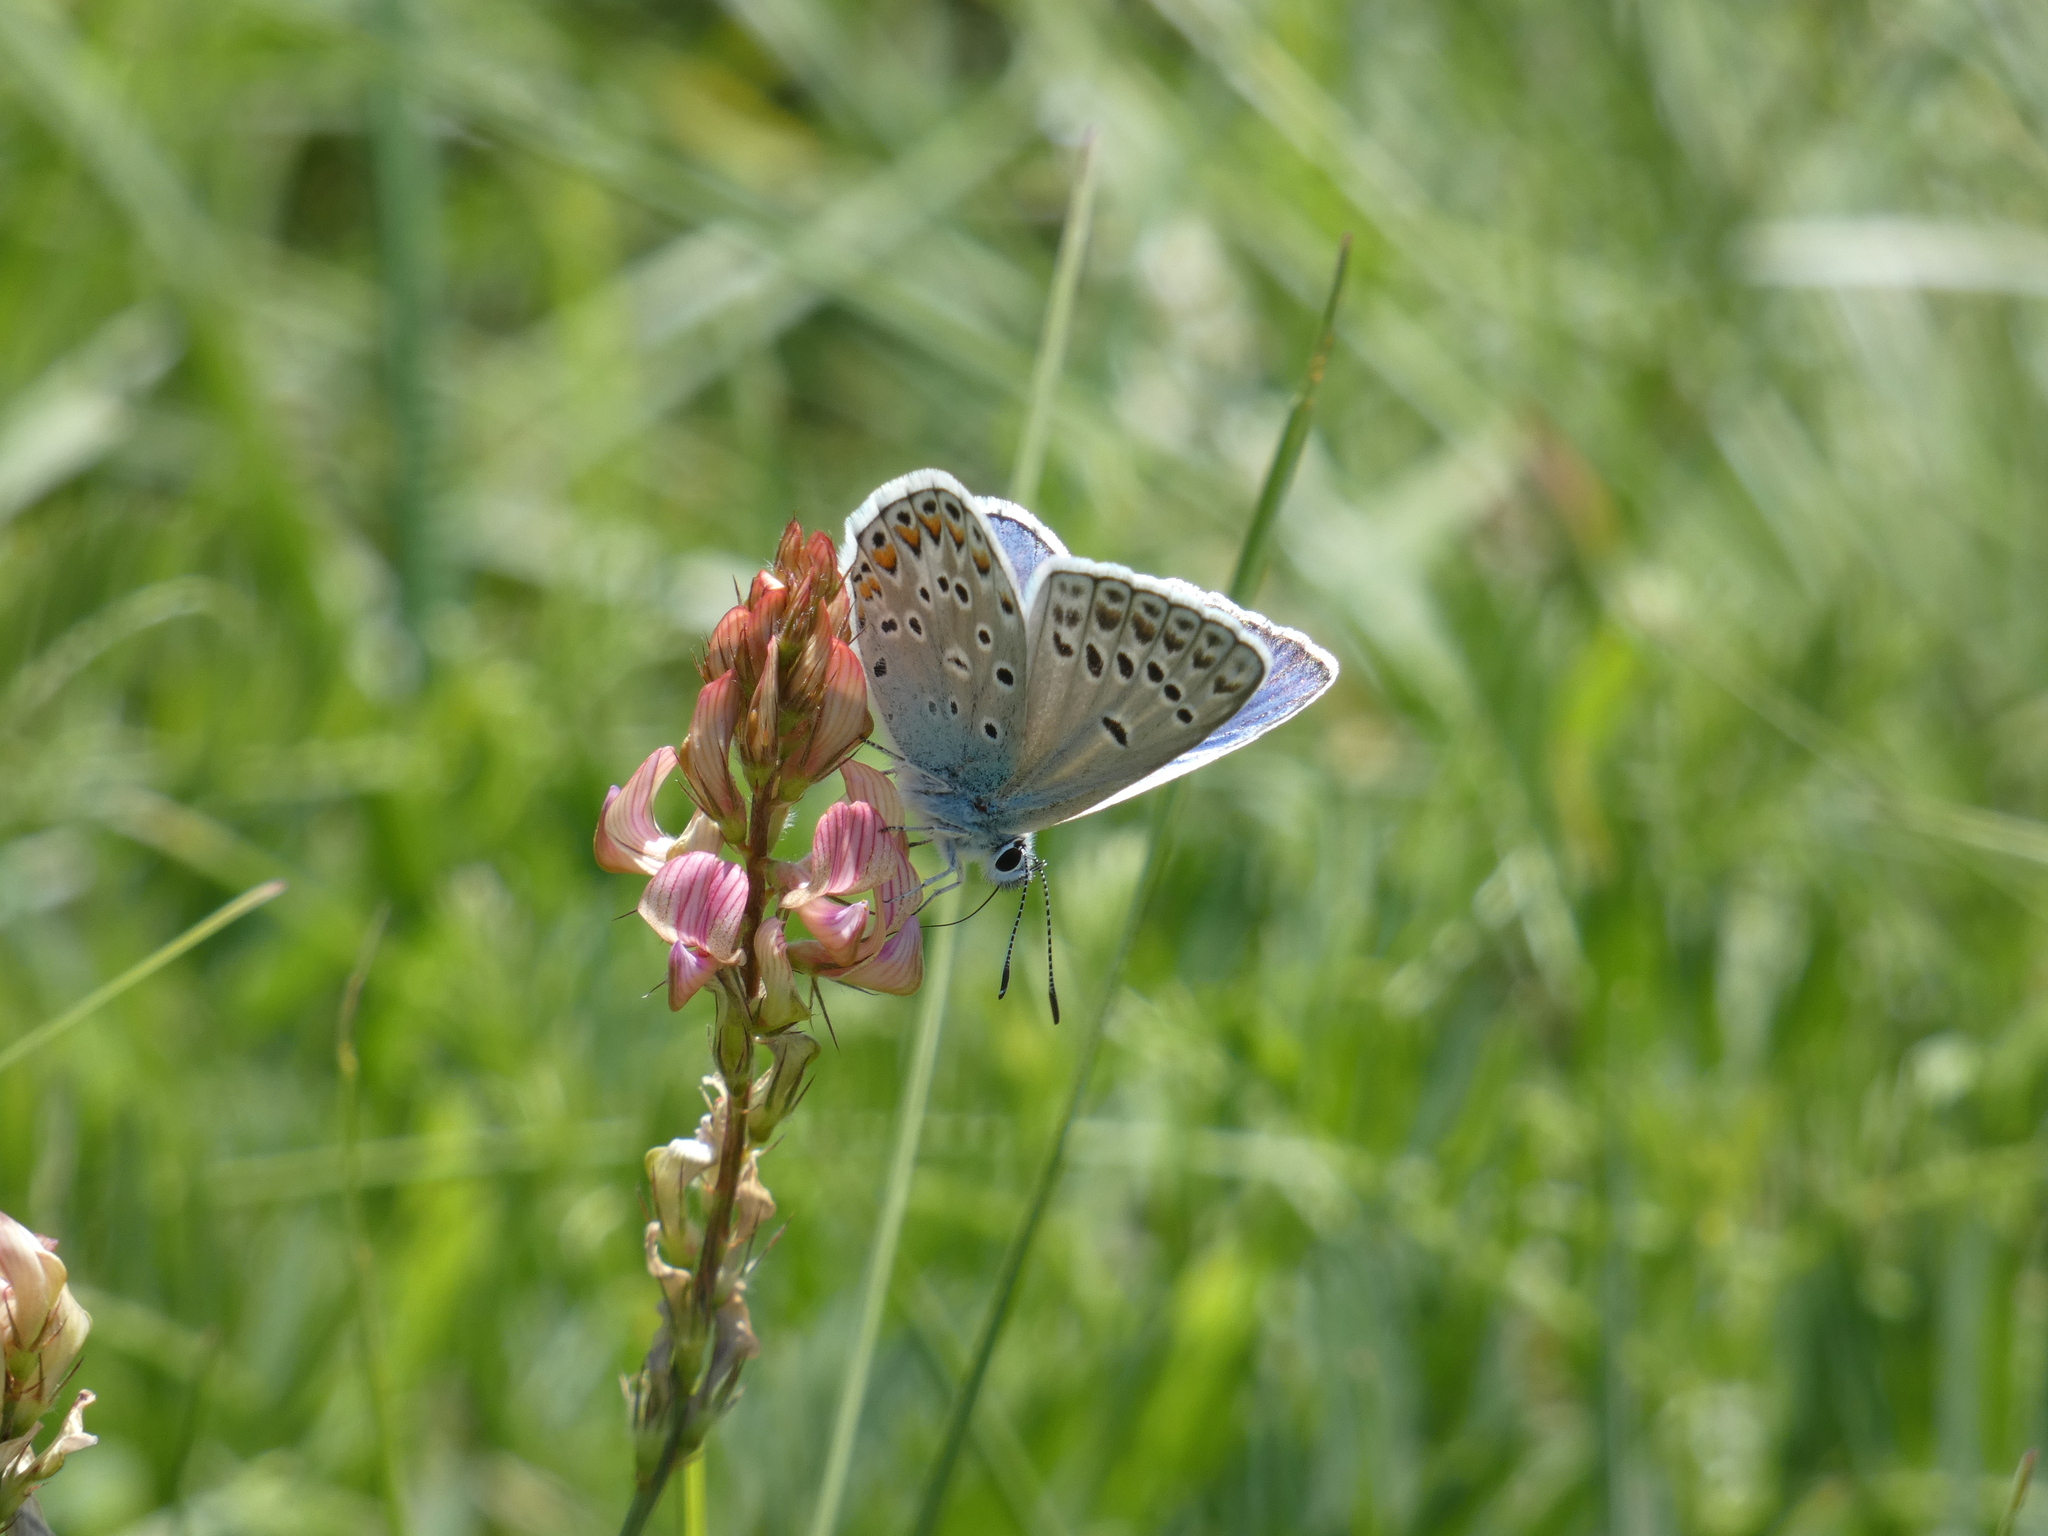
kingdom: Animalia
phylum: Arthropoda
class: Insecta
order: Lepidoptera
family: Lycaenidae
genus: Plebicula
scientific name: Plebicula escheri
